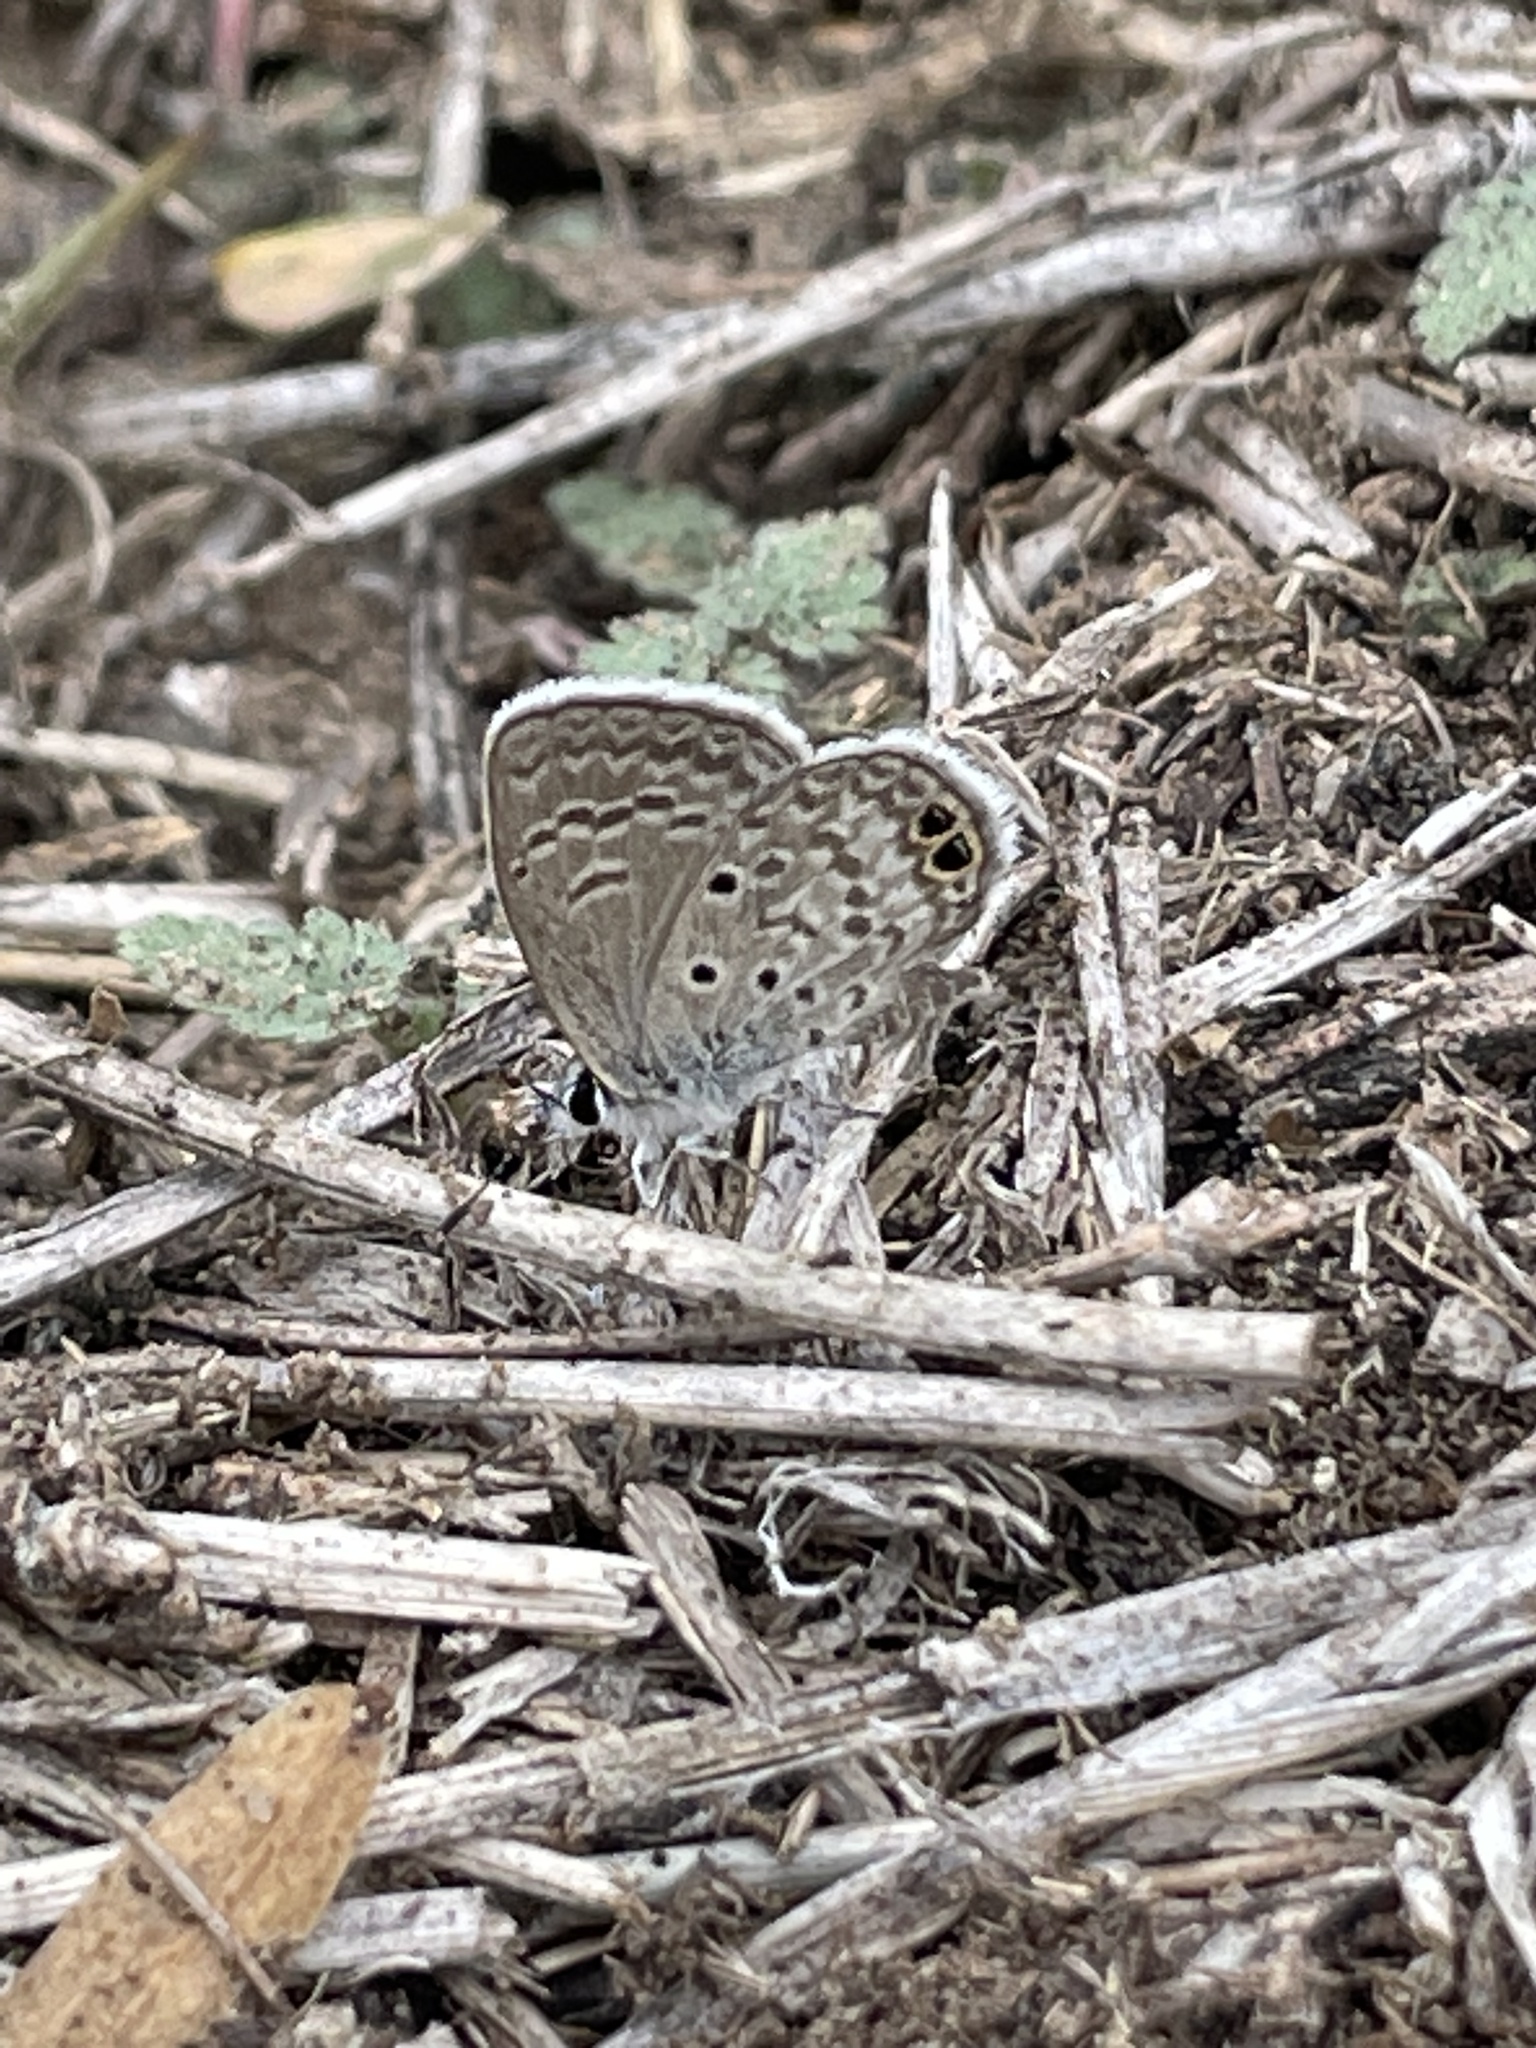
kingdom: Animalia
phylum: Arthropoda
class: Insecta
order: Lepidoptera
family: Lycaenidae
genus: Hemiargus
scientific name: Hemiargus ceraunus
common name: Ceraunus blue
